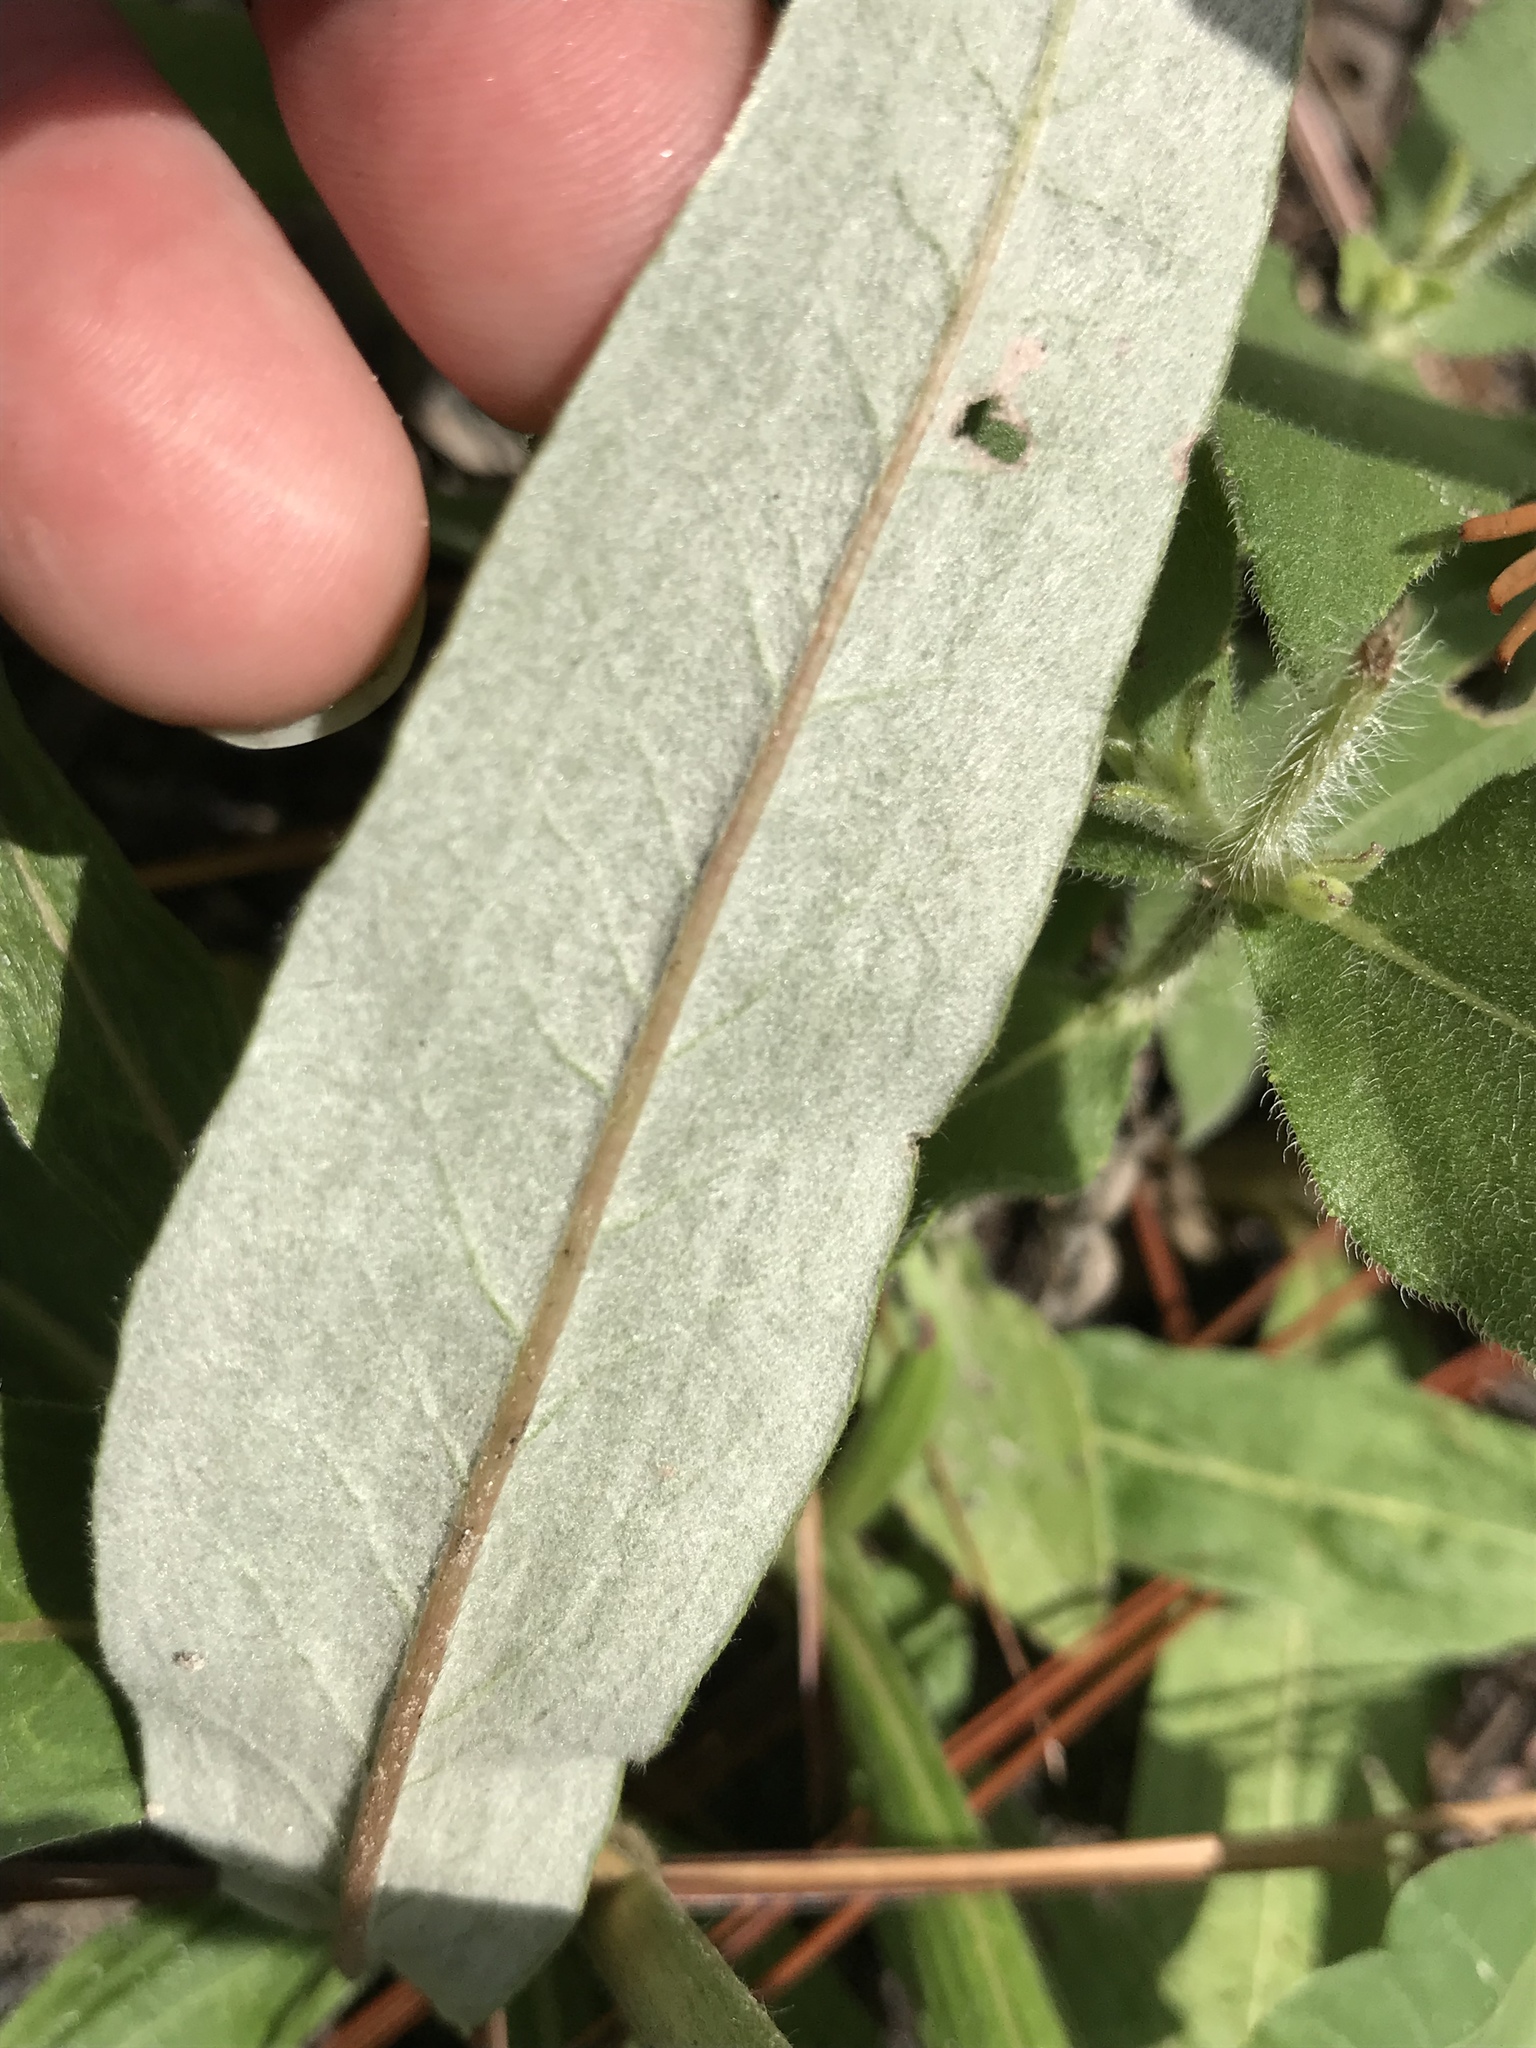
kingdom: Plantae
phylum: Tracheophyta
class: Magnoliopsida
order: Caryophyllales
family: Polygonaceae
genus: Eriogonum
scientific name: Eriogonum longifolium
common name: Longleaf wild buckwheat
